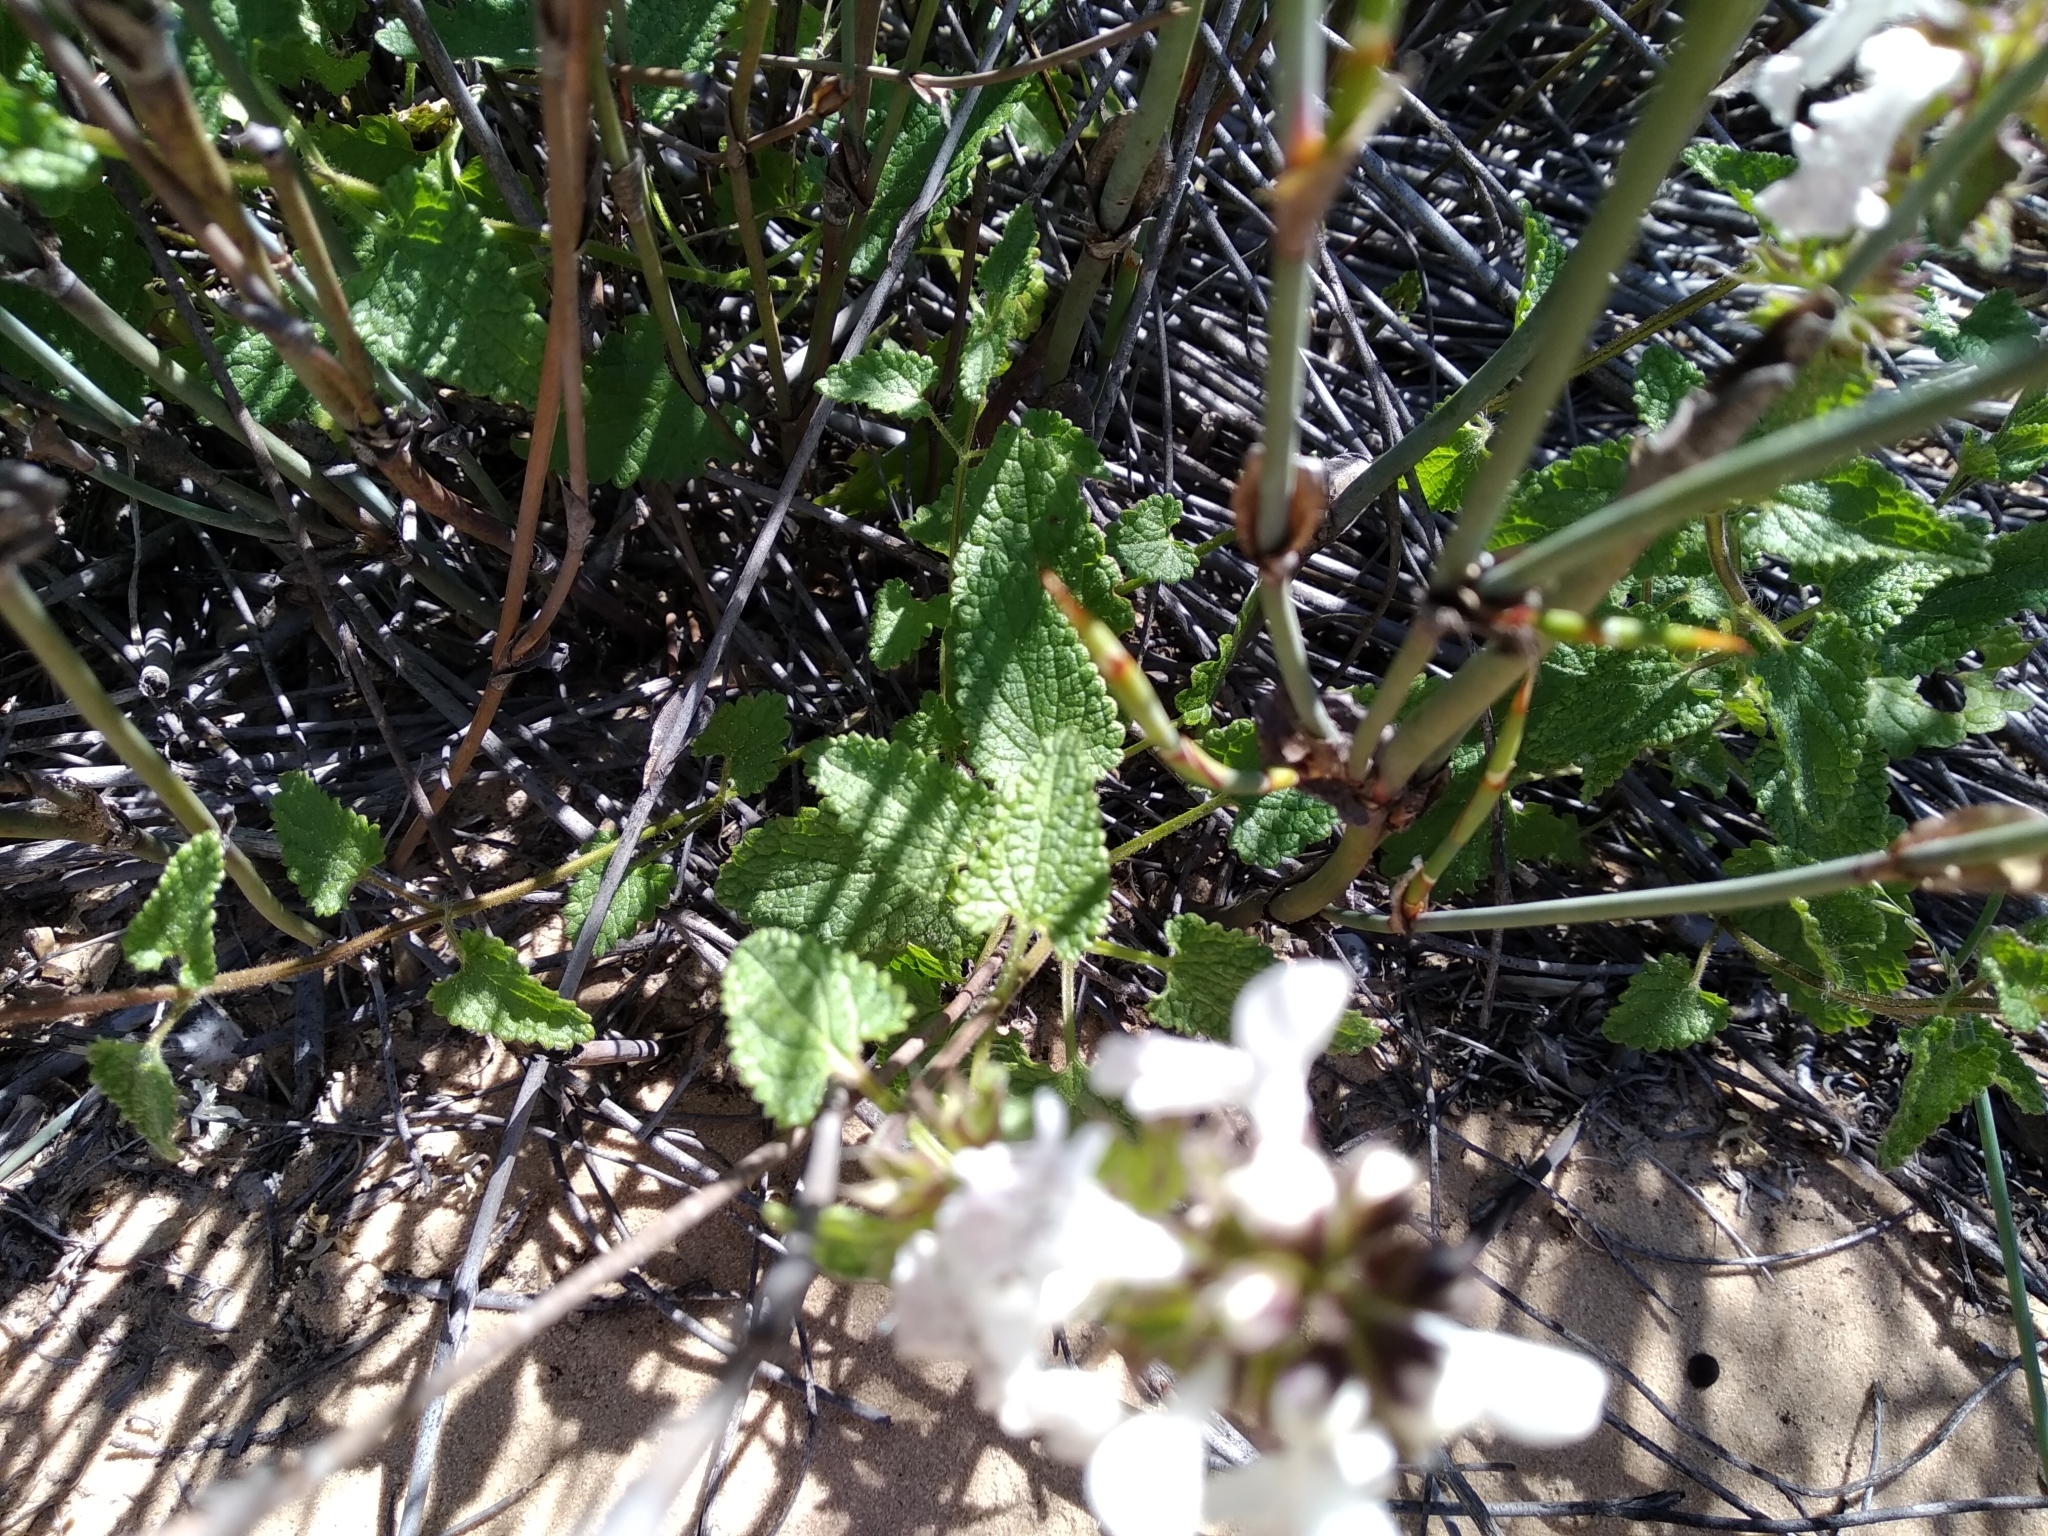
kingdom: Plantae
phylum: Tracheophyta
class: Magnoliopsida
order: Lamiales
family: Lamiaceae
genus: Stachys
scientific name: Stachys bolusii
